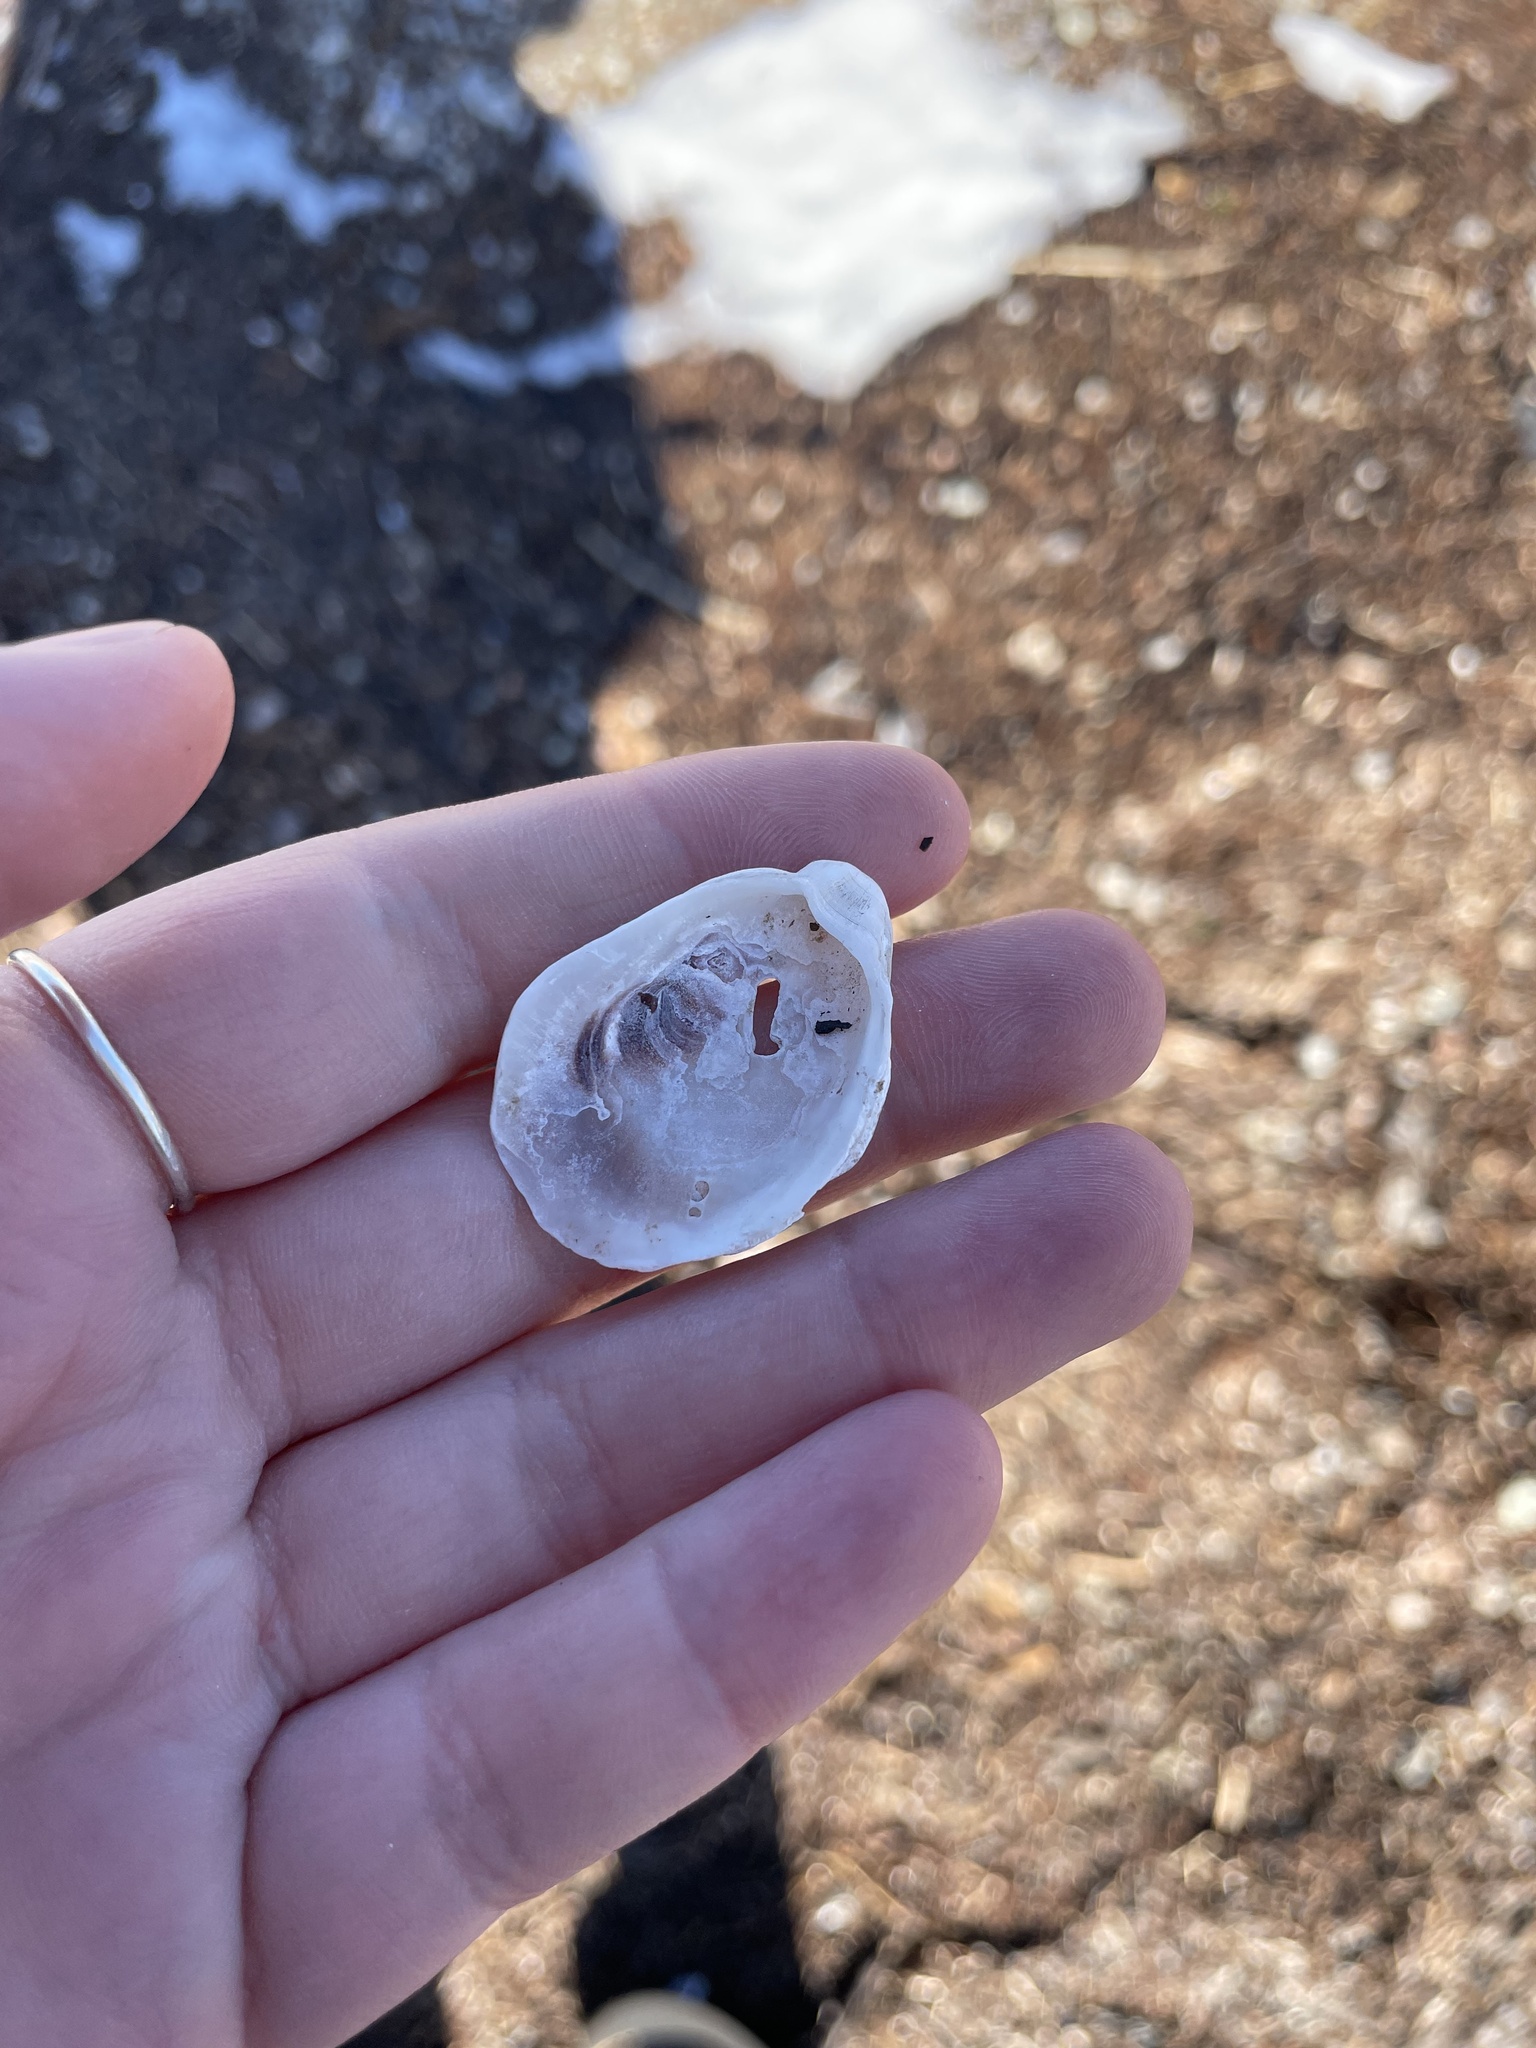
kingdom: Animalia
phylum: Mollusca
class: Bivalvia
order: Ostreida
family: Ostreidae
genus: Crassostrea
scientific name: Crassostrea virginica
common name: American oyster
